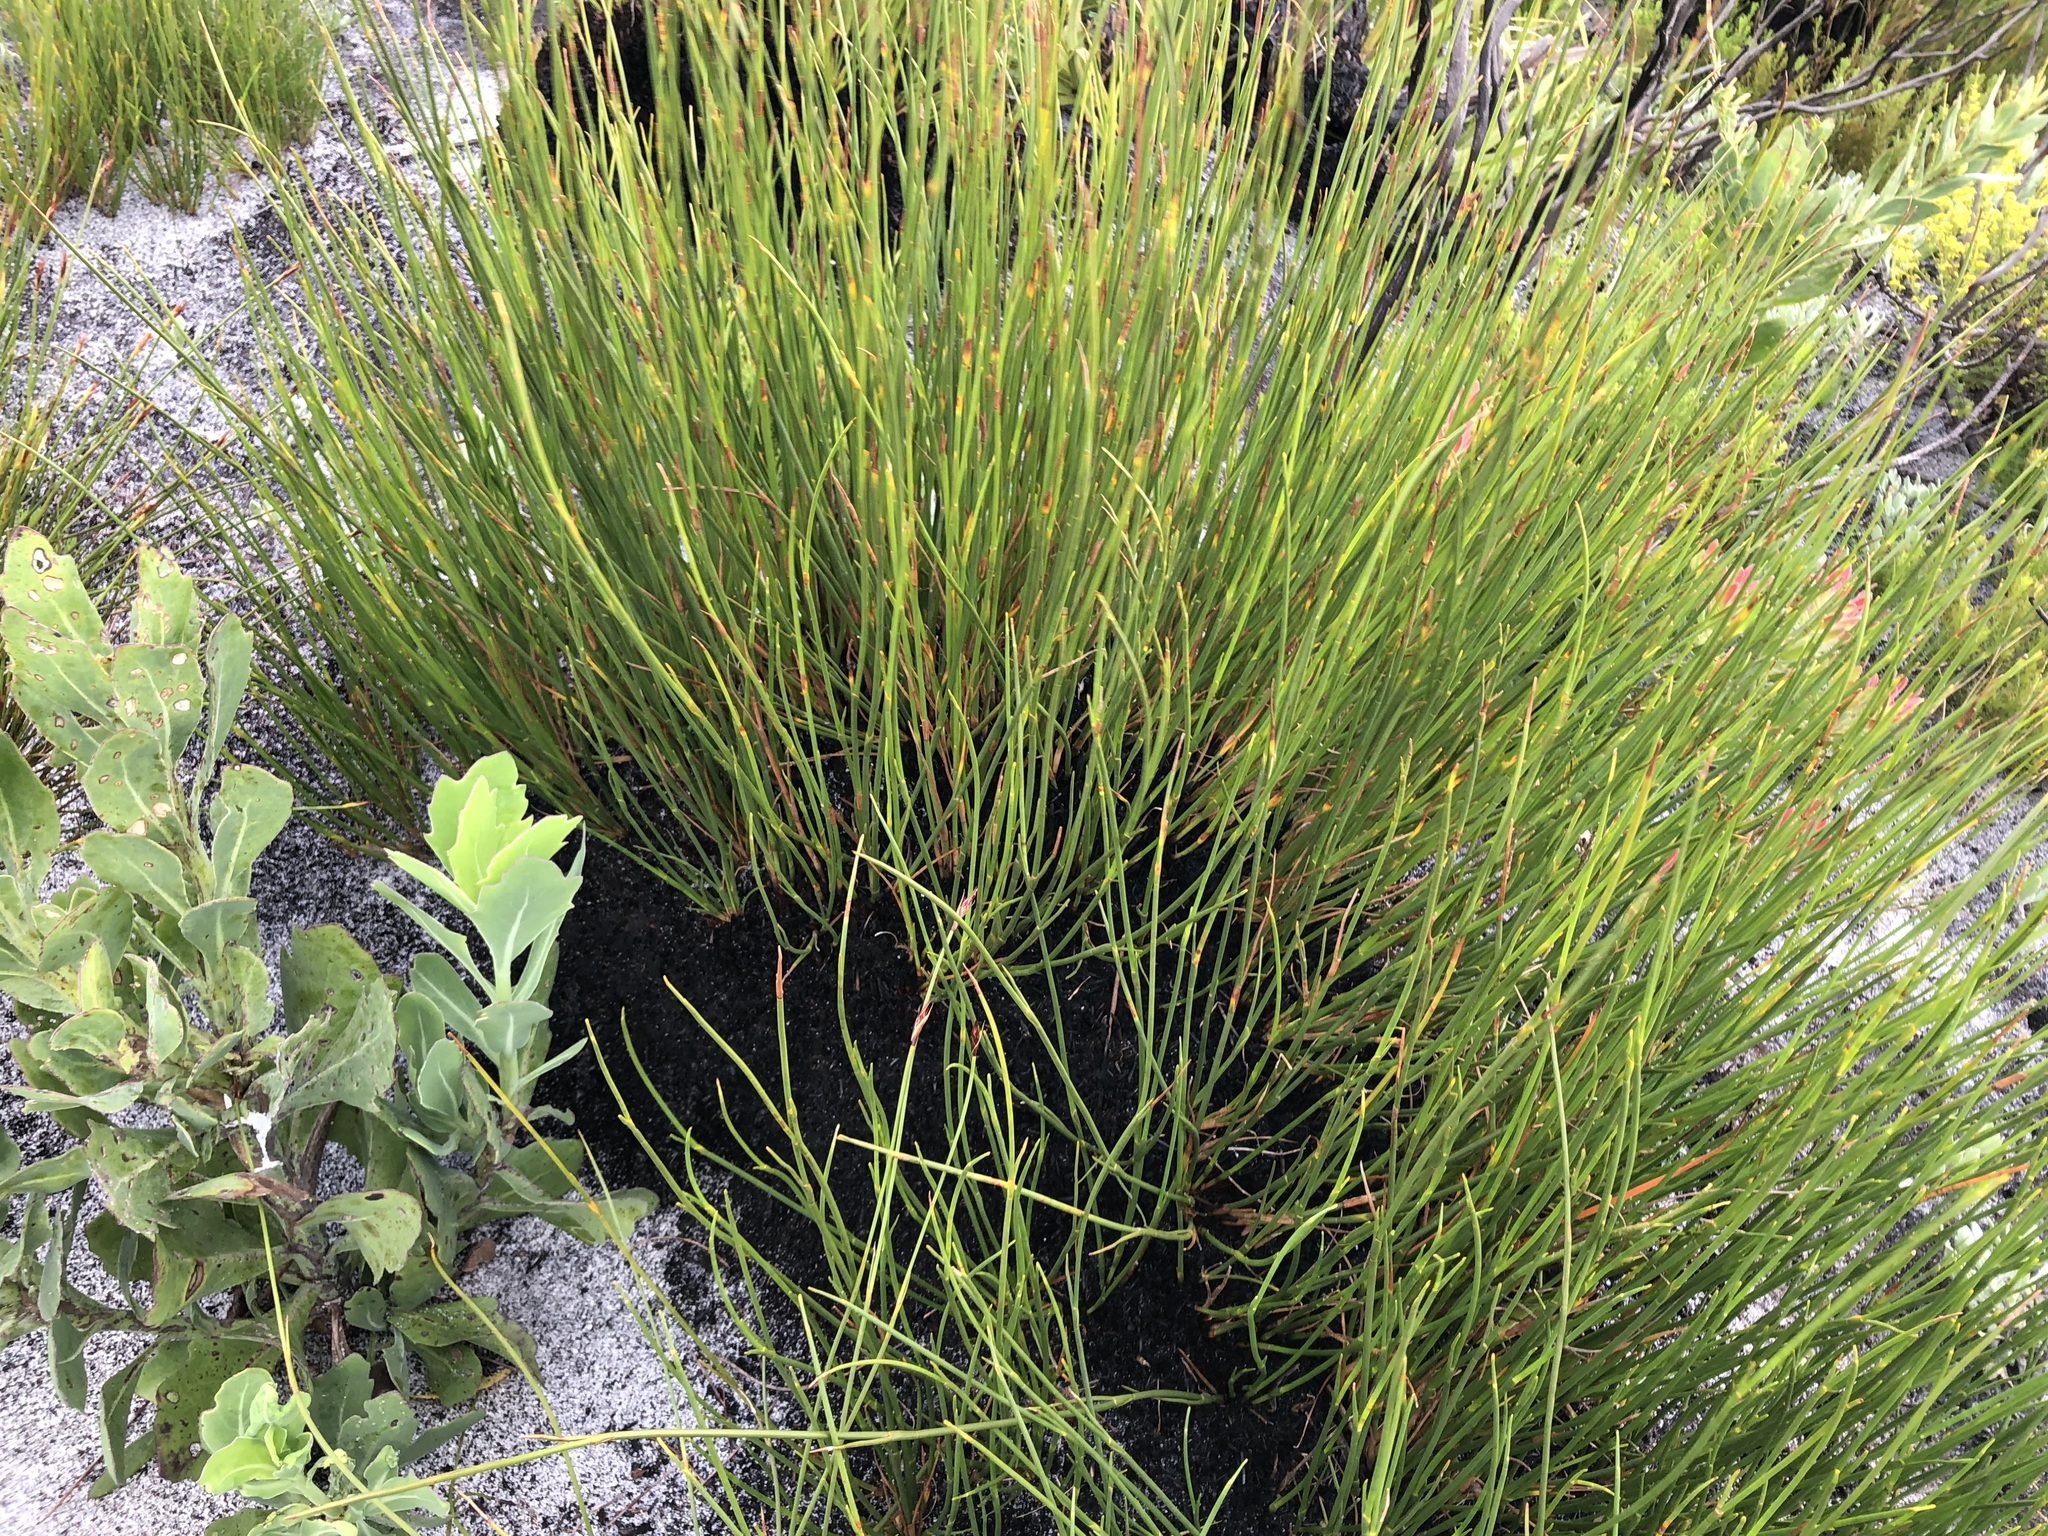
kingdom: Plantae
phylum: Tracheophyta
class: Liliopsida
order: Poales
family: Restionaceae
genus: Hypodiscus
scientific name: Hypodiscus aristatus
